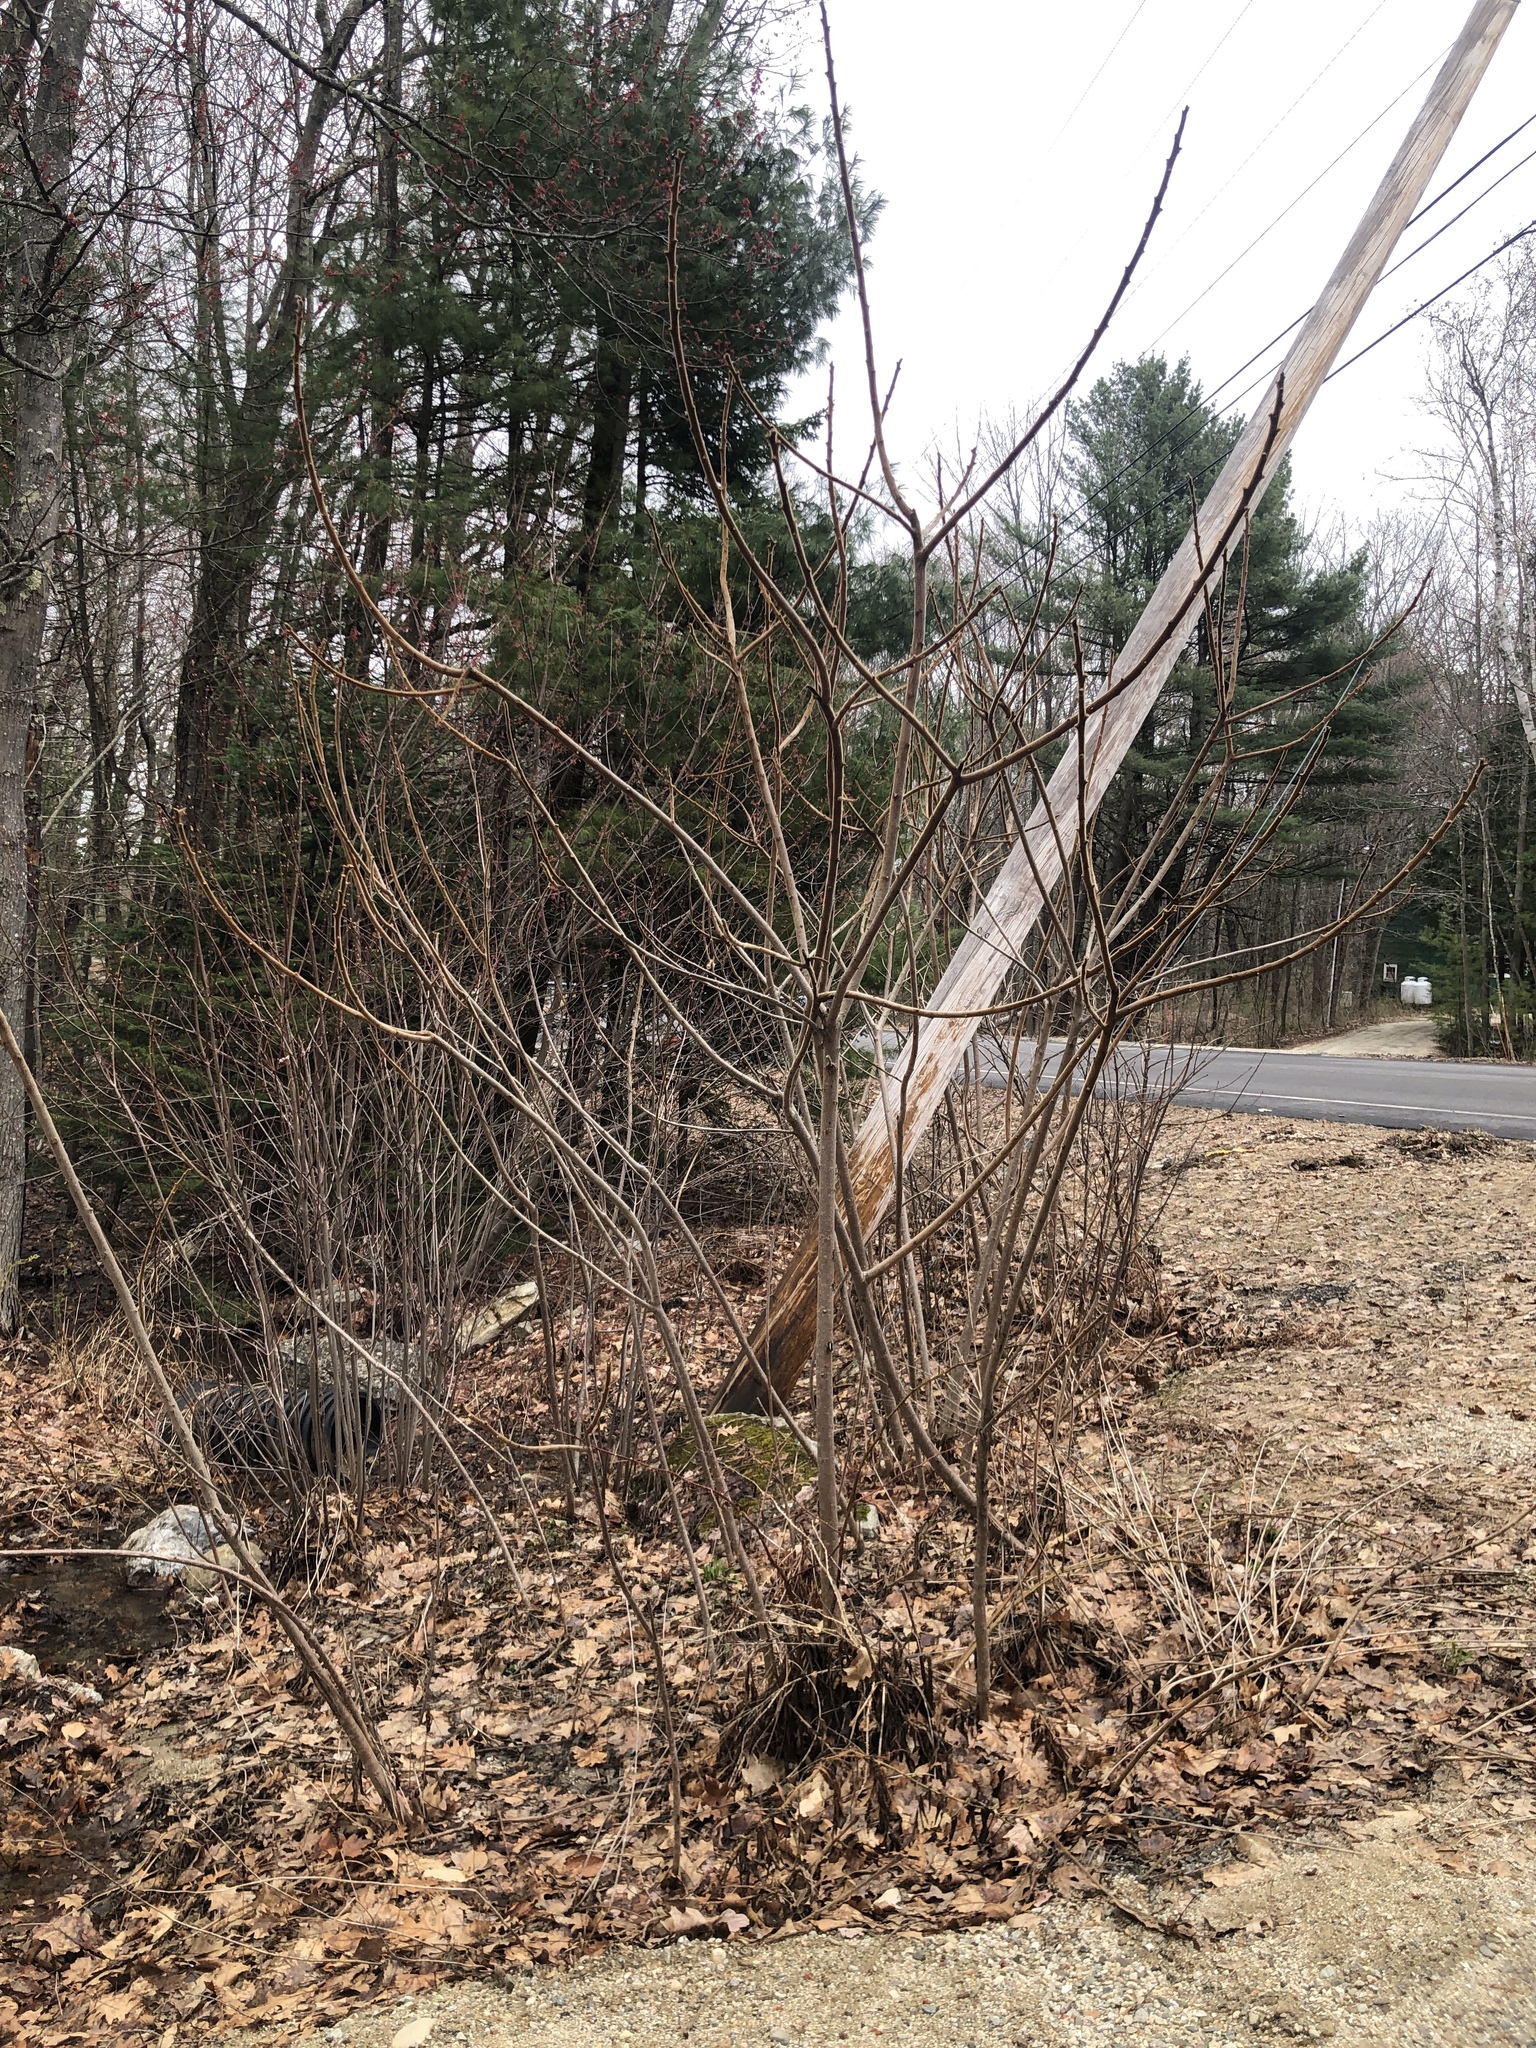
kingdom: Plantae
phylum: Tracheophyta
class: Magnoliopsida
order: Sapindales
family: Anacardiaceae
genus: Rhus
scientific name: Rhus typhina
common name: Staghorn sumac
